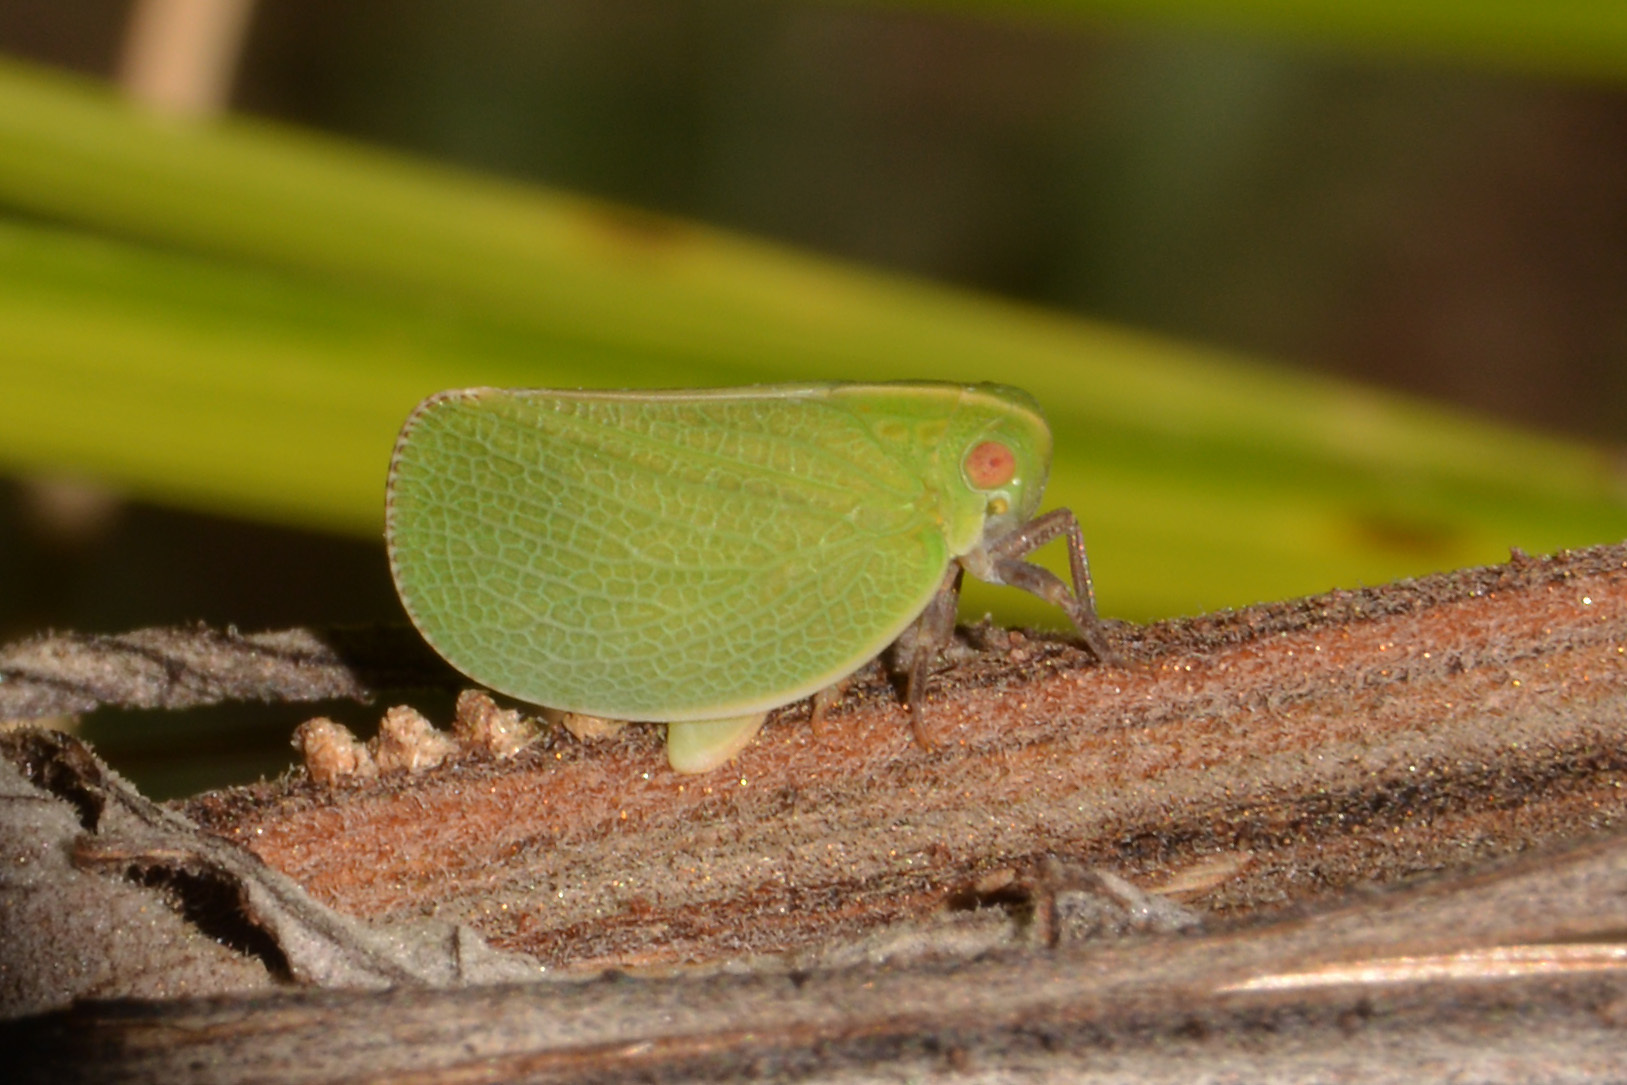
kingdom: Animalia
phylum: Arthropoda
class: Insecta
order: Hemiptera
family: Acanaloniidae
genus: Acanalonia
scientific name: Acanalonia chloris
